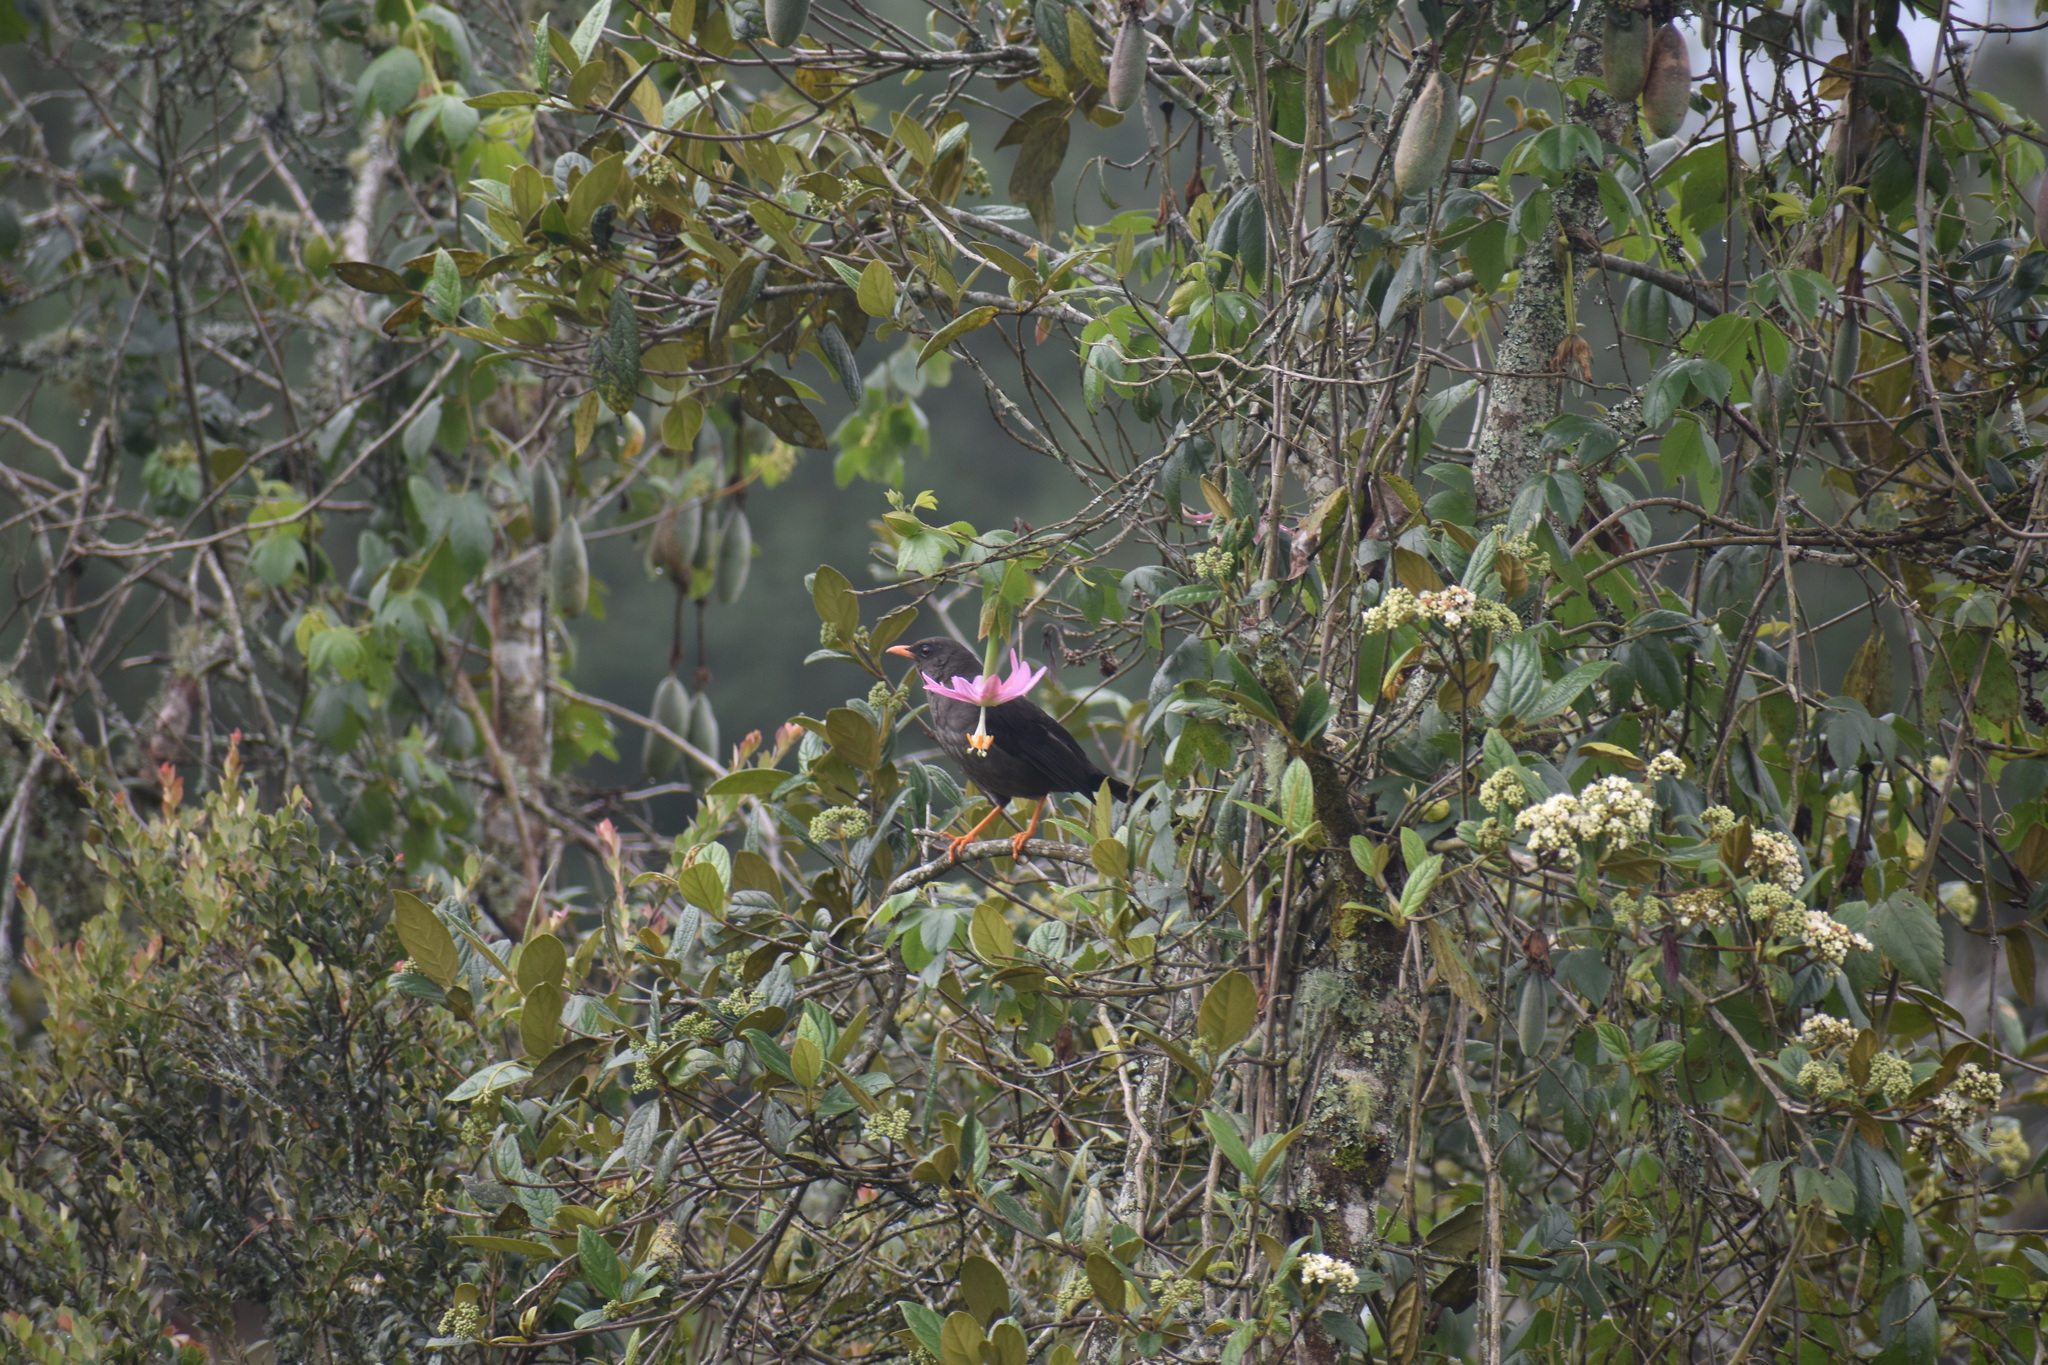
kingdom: Animalia
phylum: Chordata
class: Aves
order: Passeriformes
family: Turdidae
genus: Turdus
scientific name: Turdus fuscater
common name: Great thrush
